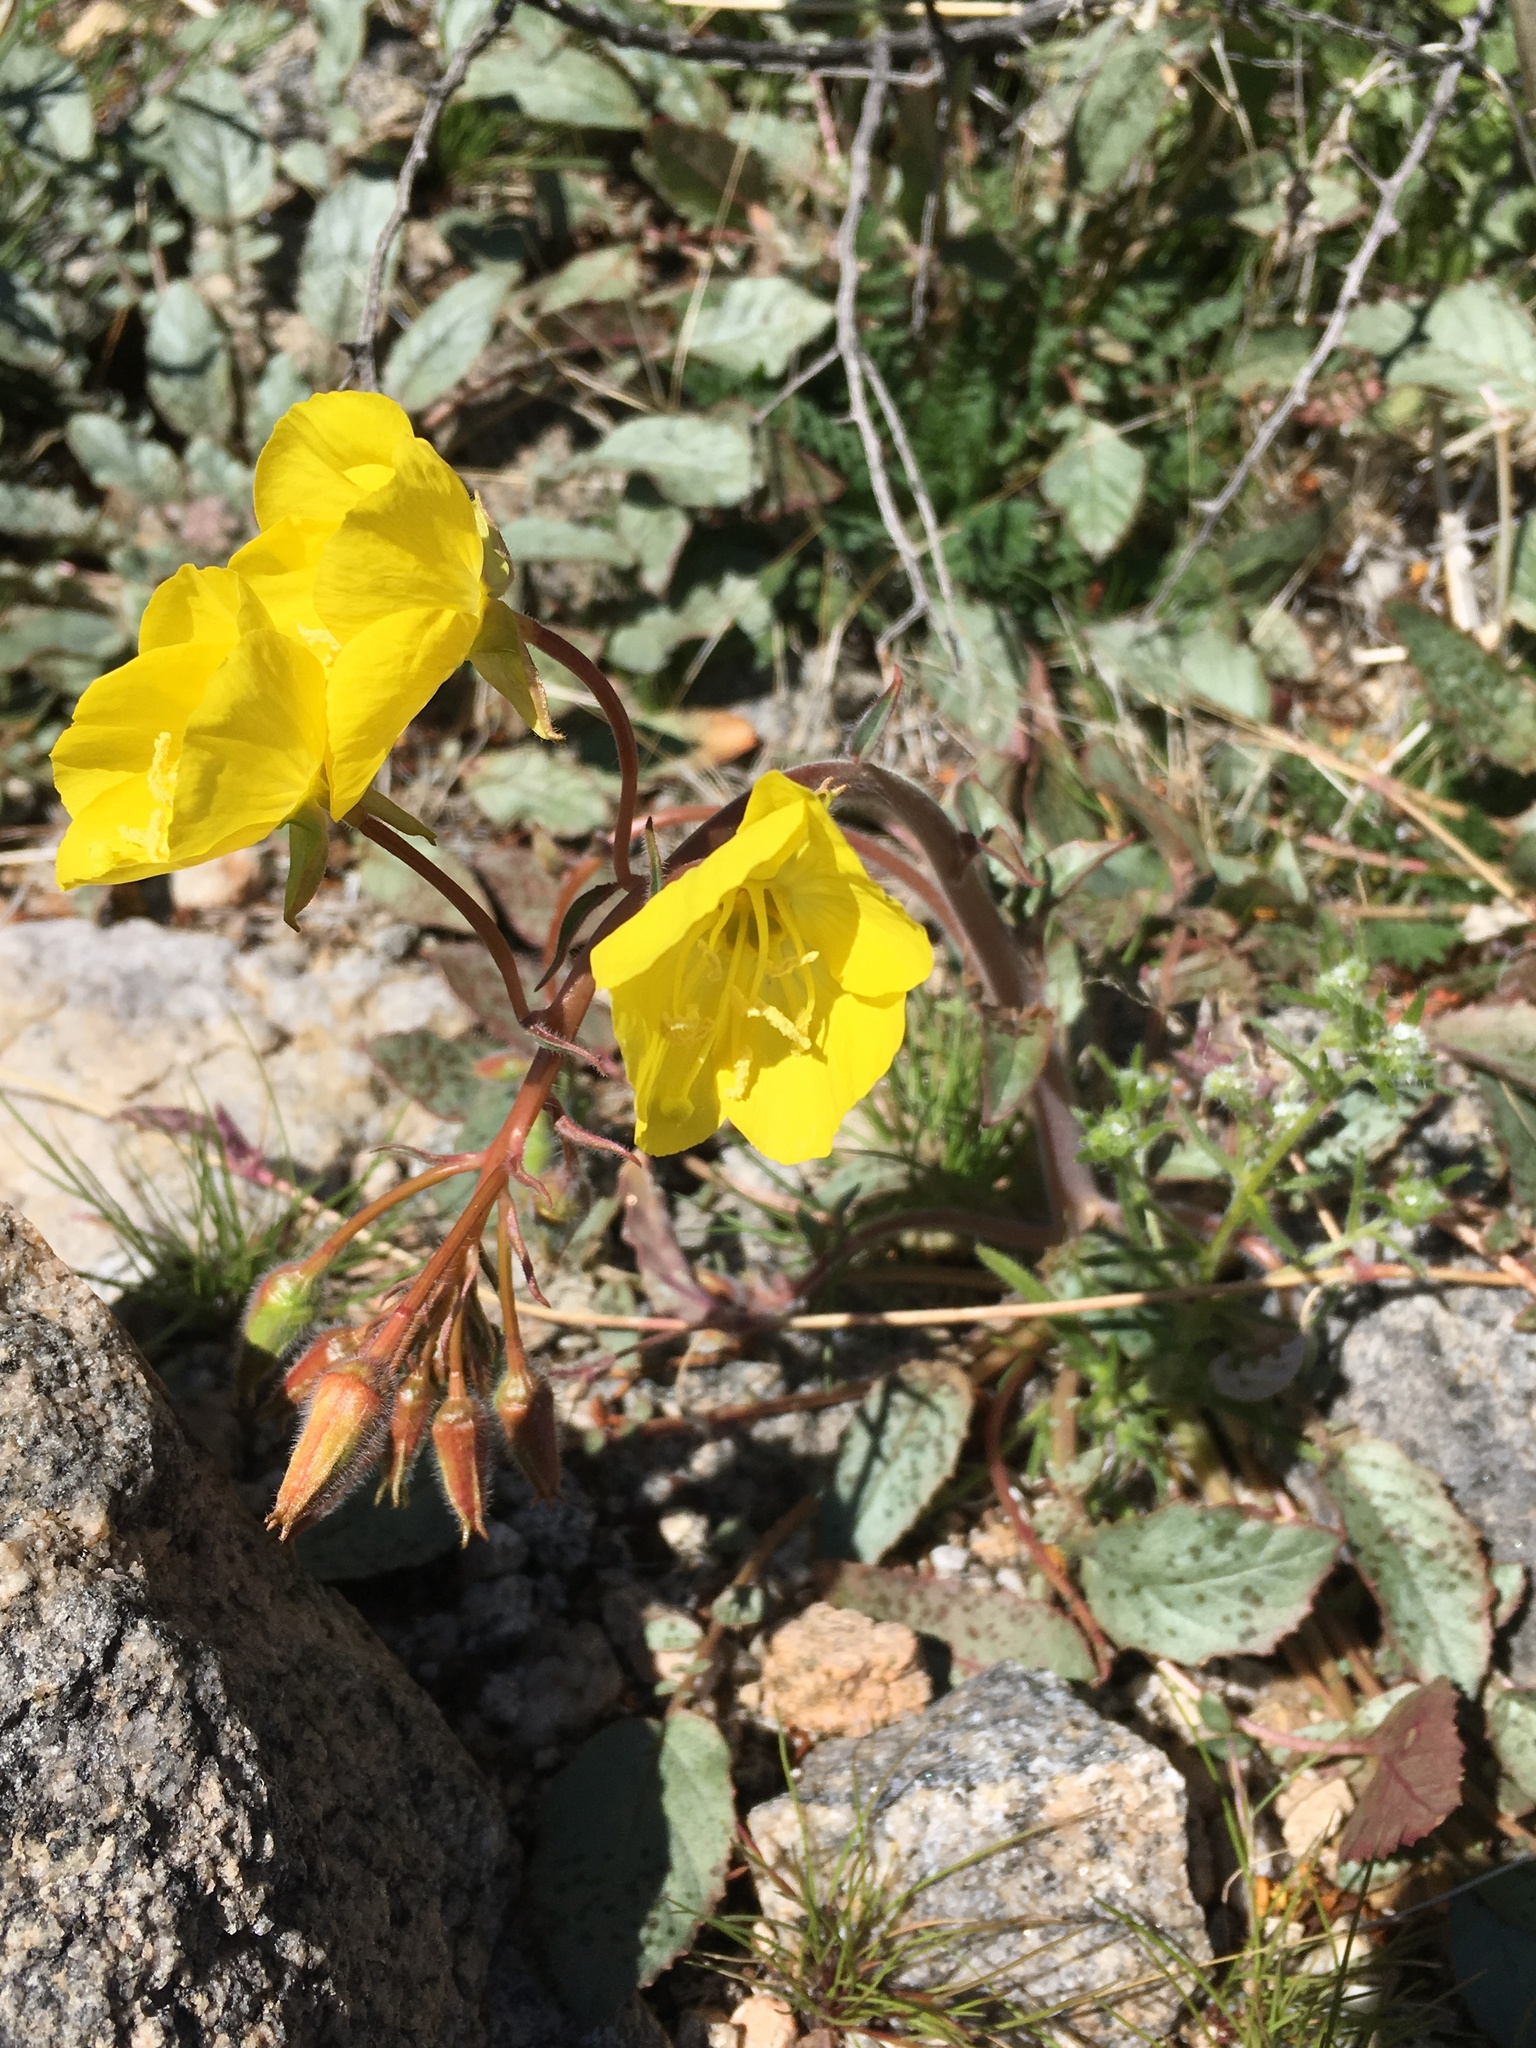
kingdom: Plantae
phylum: Tracheophyta
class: Magnoliopsida
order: Myrtales
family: Onagraceae
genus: Chylismia
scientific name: Chylismia brevipes
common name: Yellow cups
